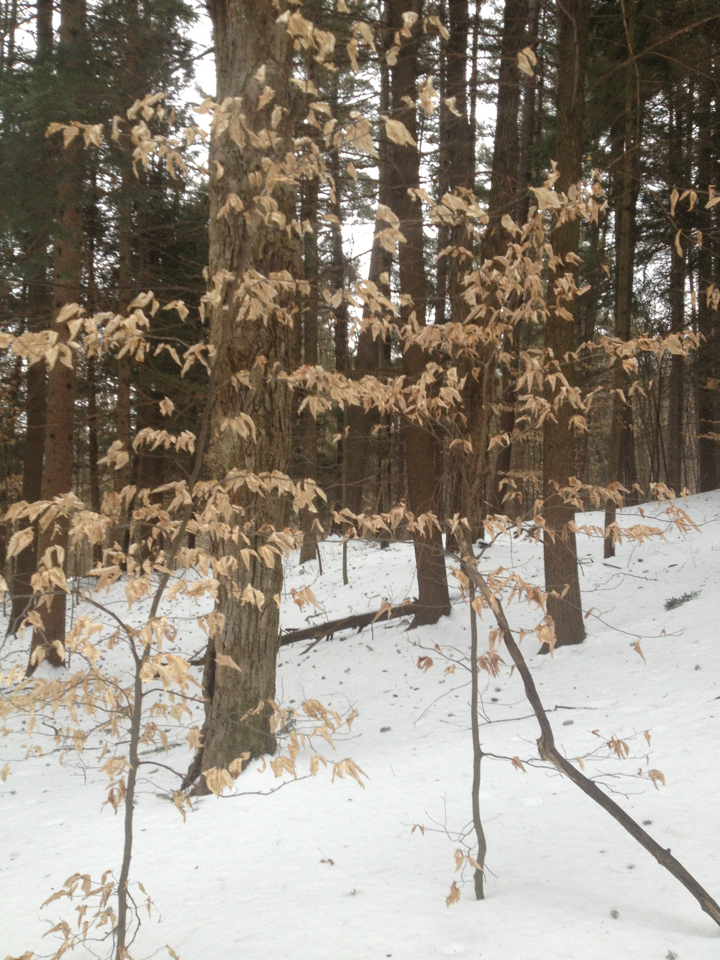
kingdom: Plantae
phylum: Tracheophyta
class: Magnoliopsida
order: Fagales
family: Fagaceae
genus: Fagus
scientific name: Fagus grandifolia
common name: American beech
